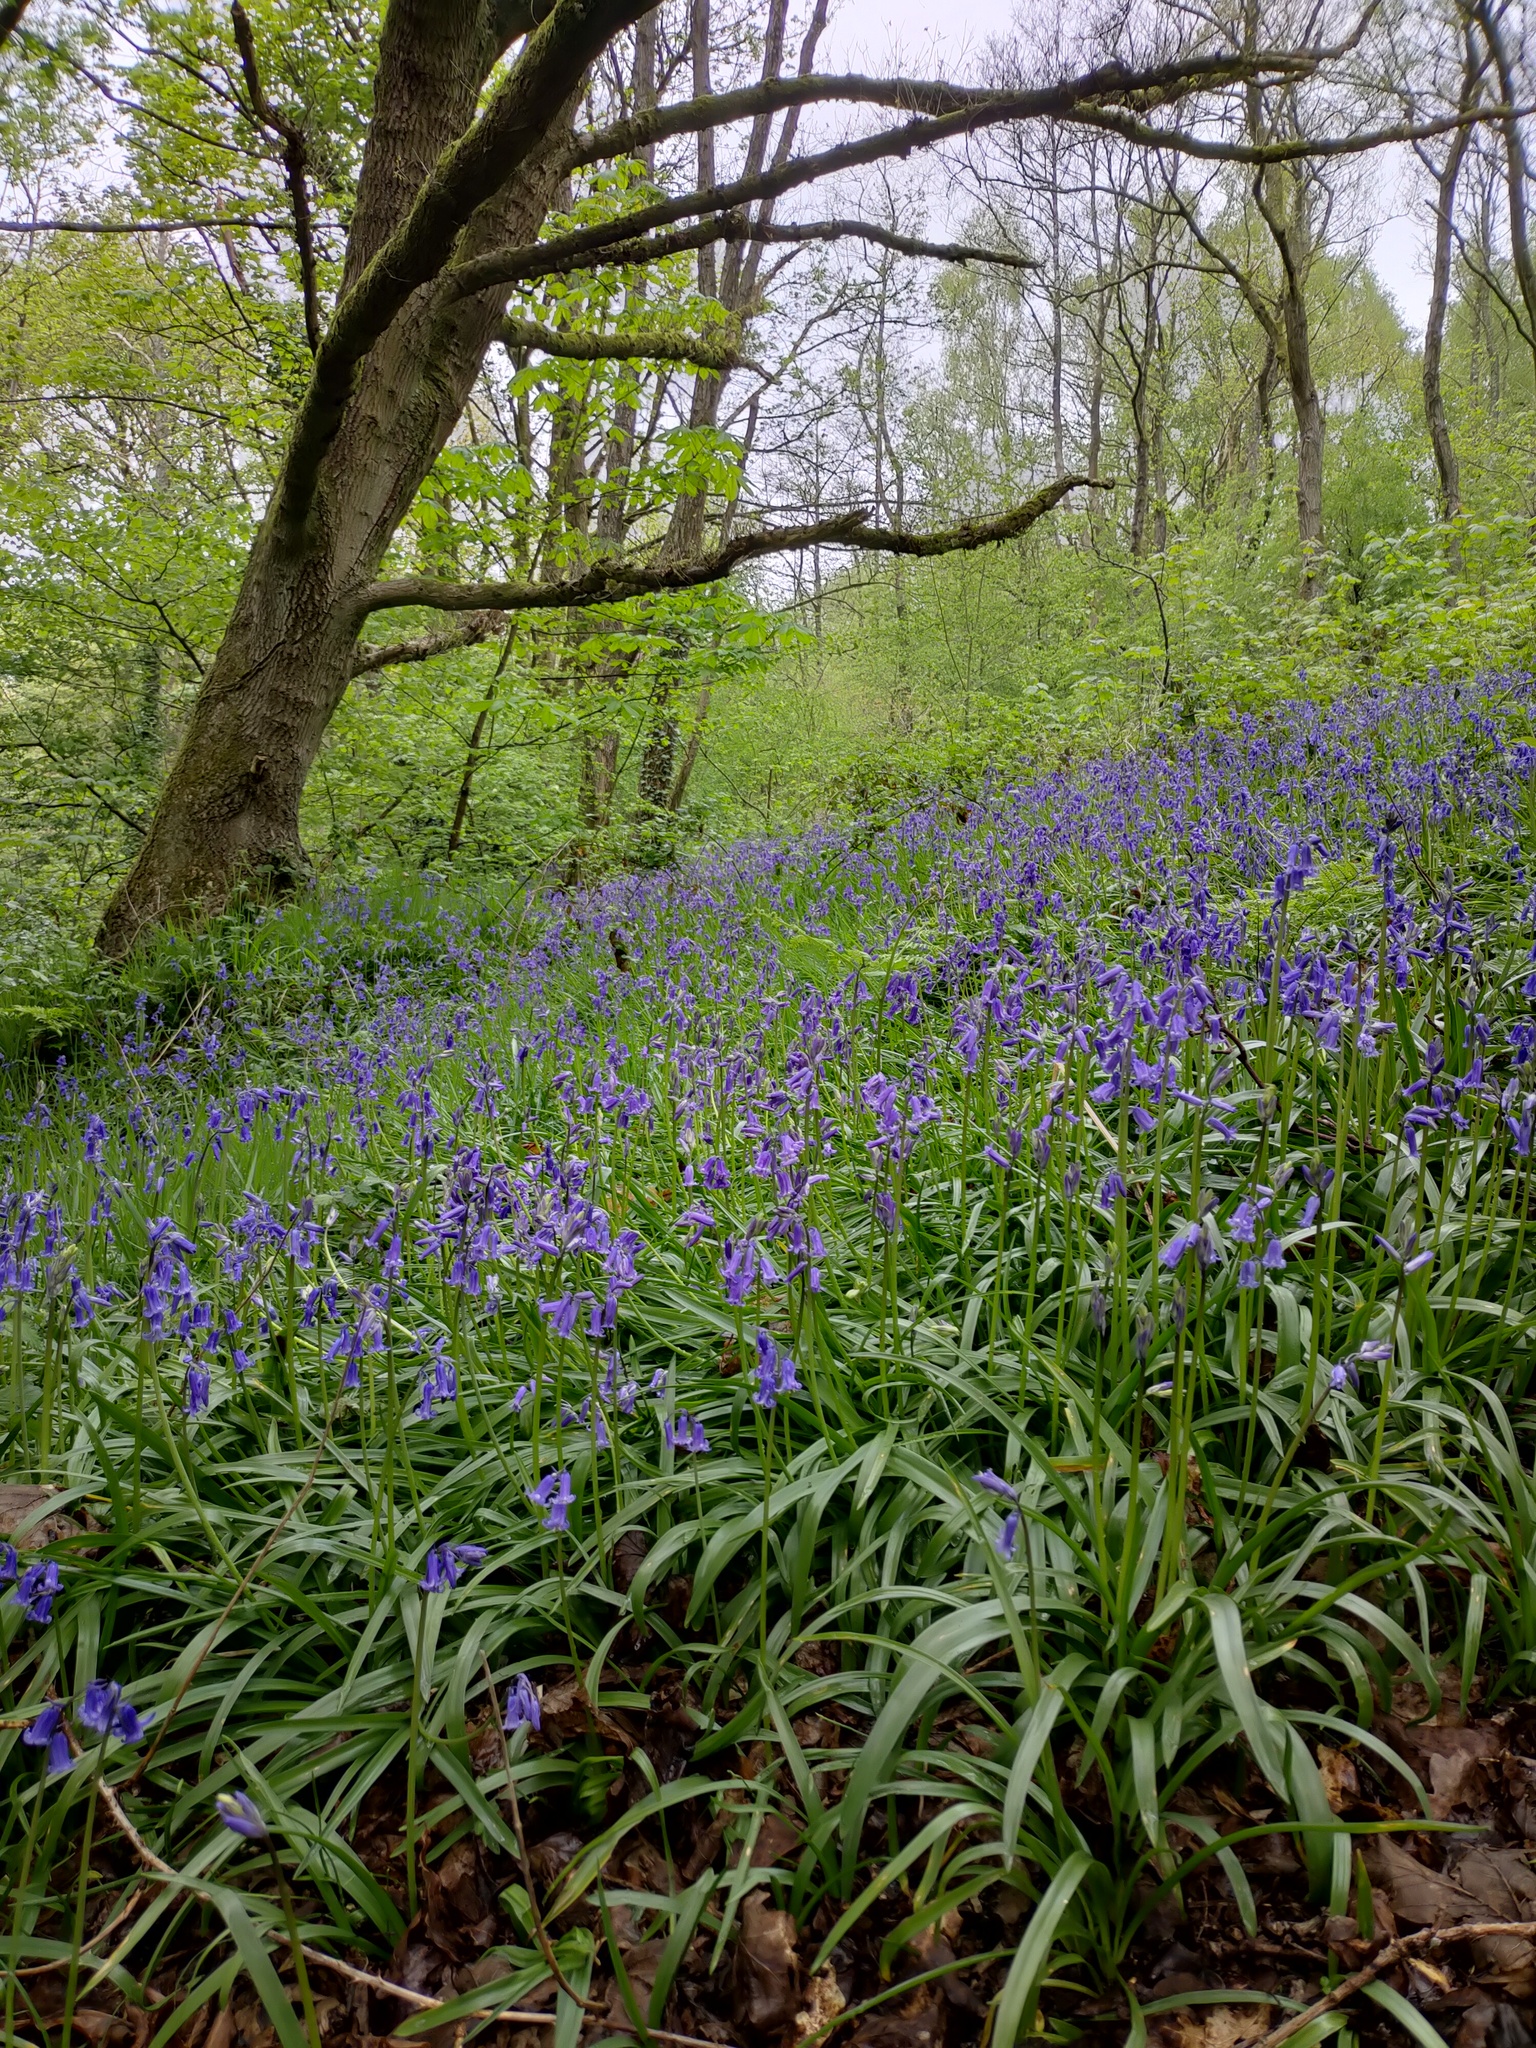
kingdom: Plantae
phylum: Tracheophyta
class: Liliopsida
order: Asparagales
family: Asparagaceae
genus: Hyacinthoides
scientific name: Hyacinthoides non-scripta
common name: Bluebell
